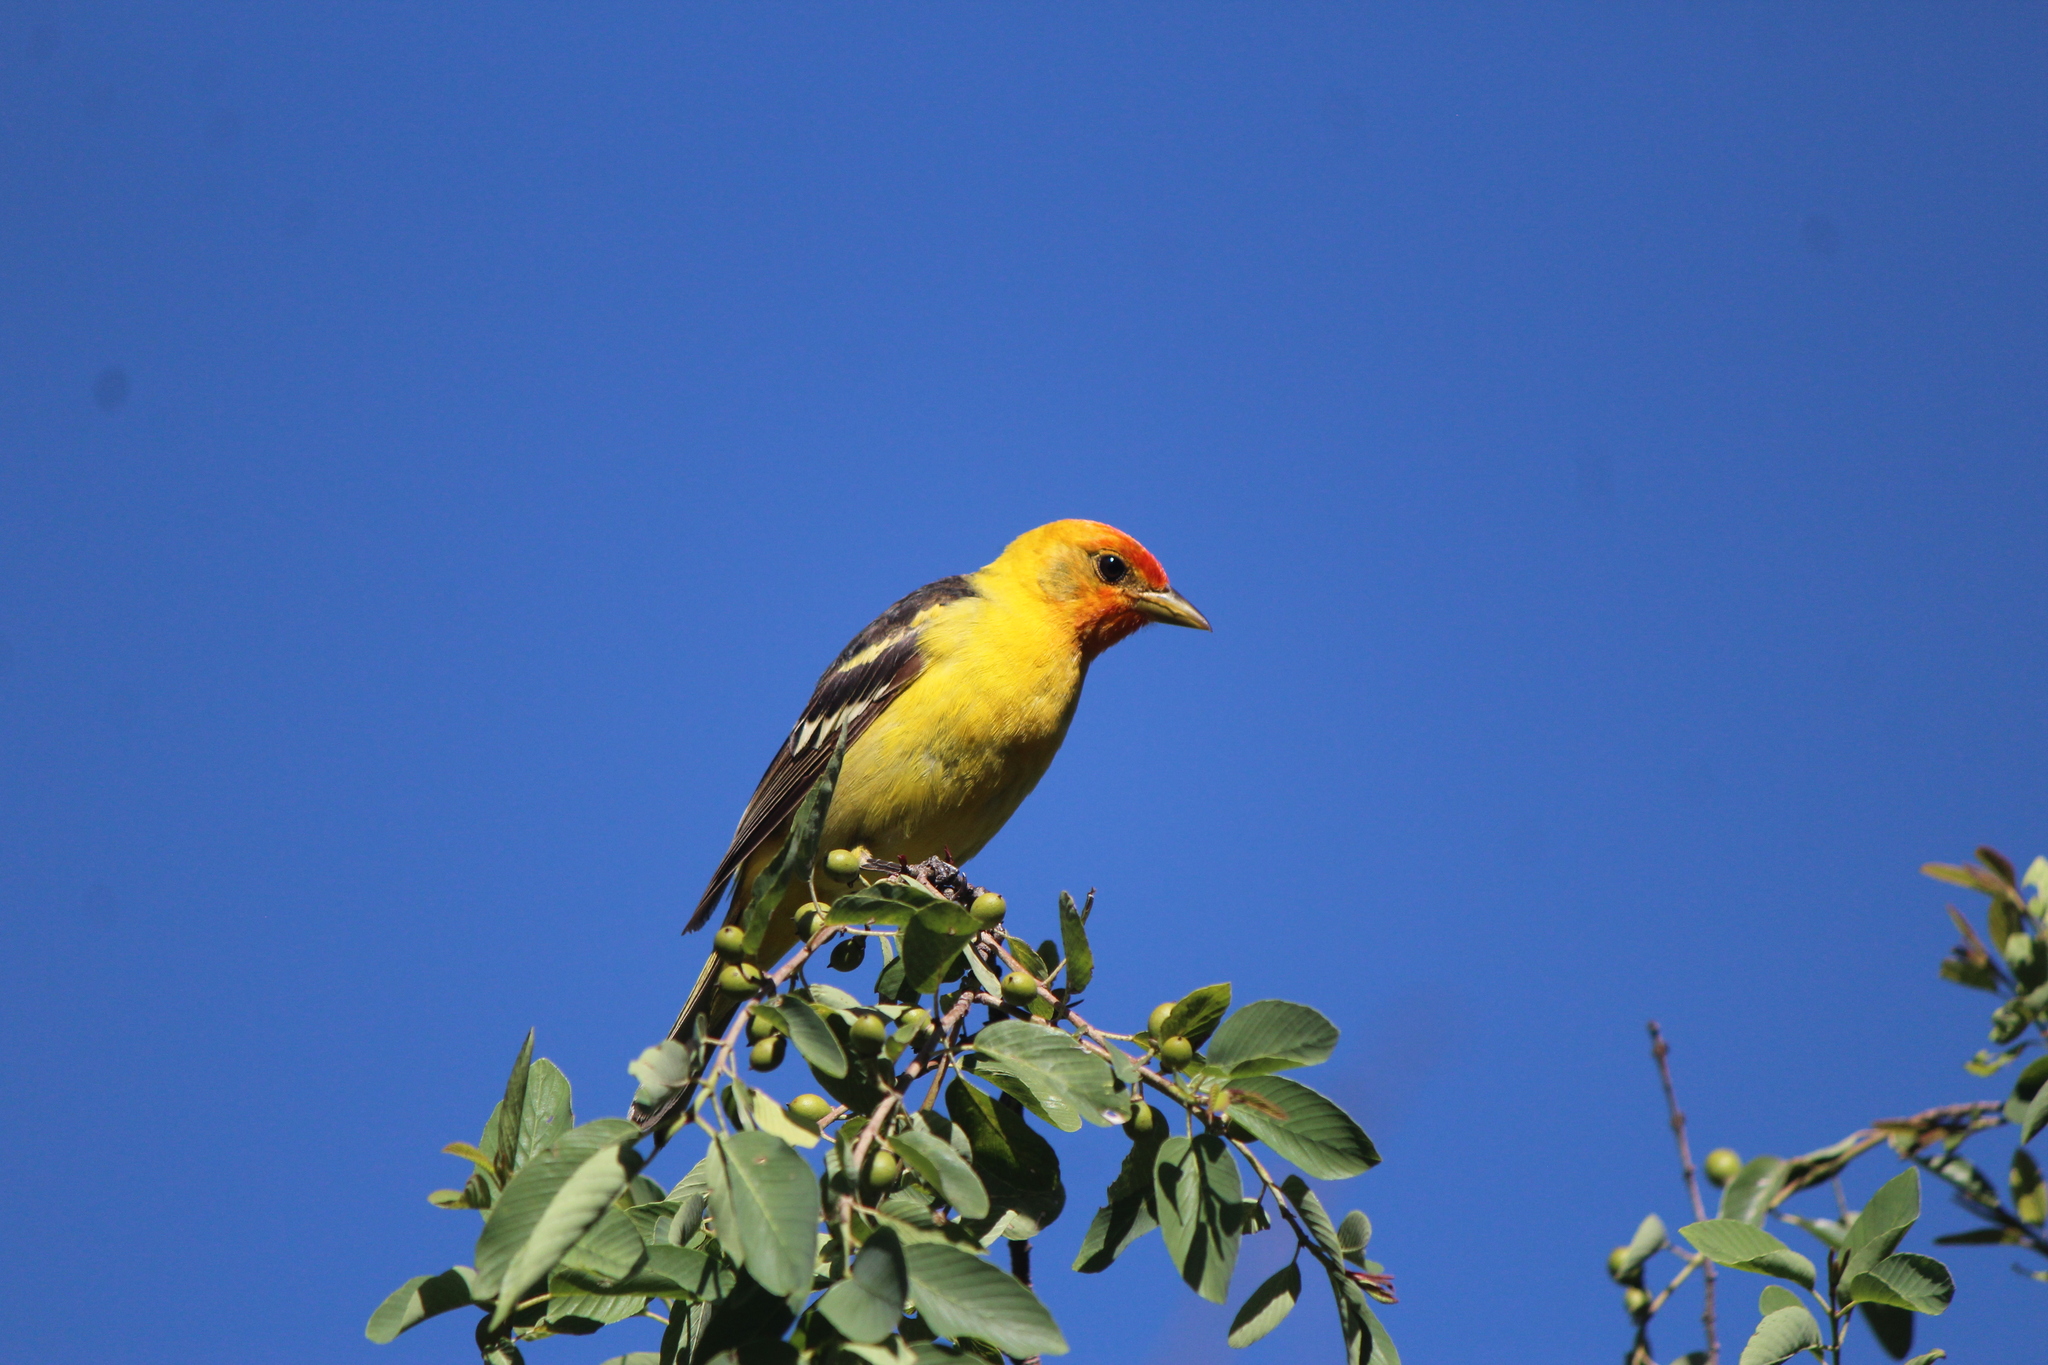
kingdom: Animalia
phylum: Chordata
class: Aves
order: Passeriformes
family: Cardinalidae
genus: Piranga
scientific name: Piranga ludoviciana
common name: Western tanager
